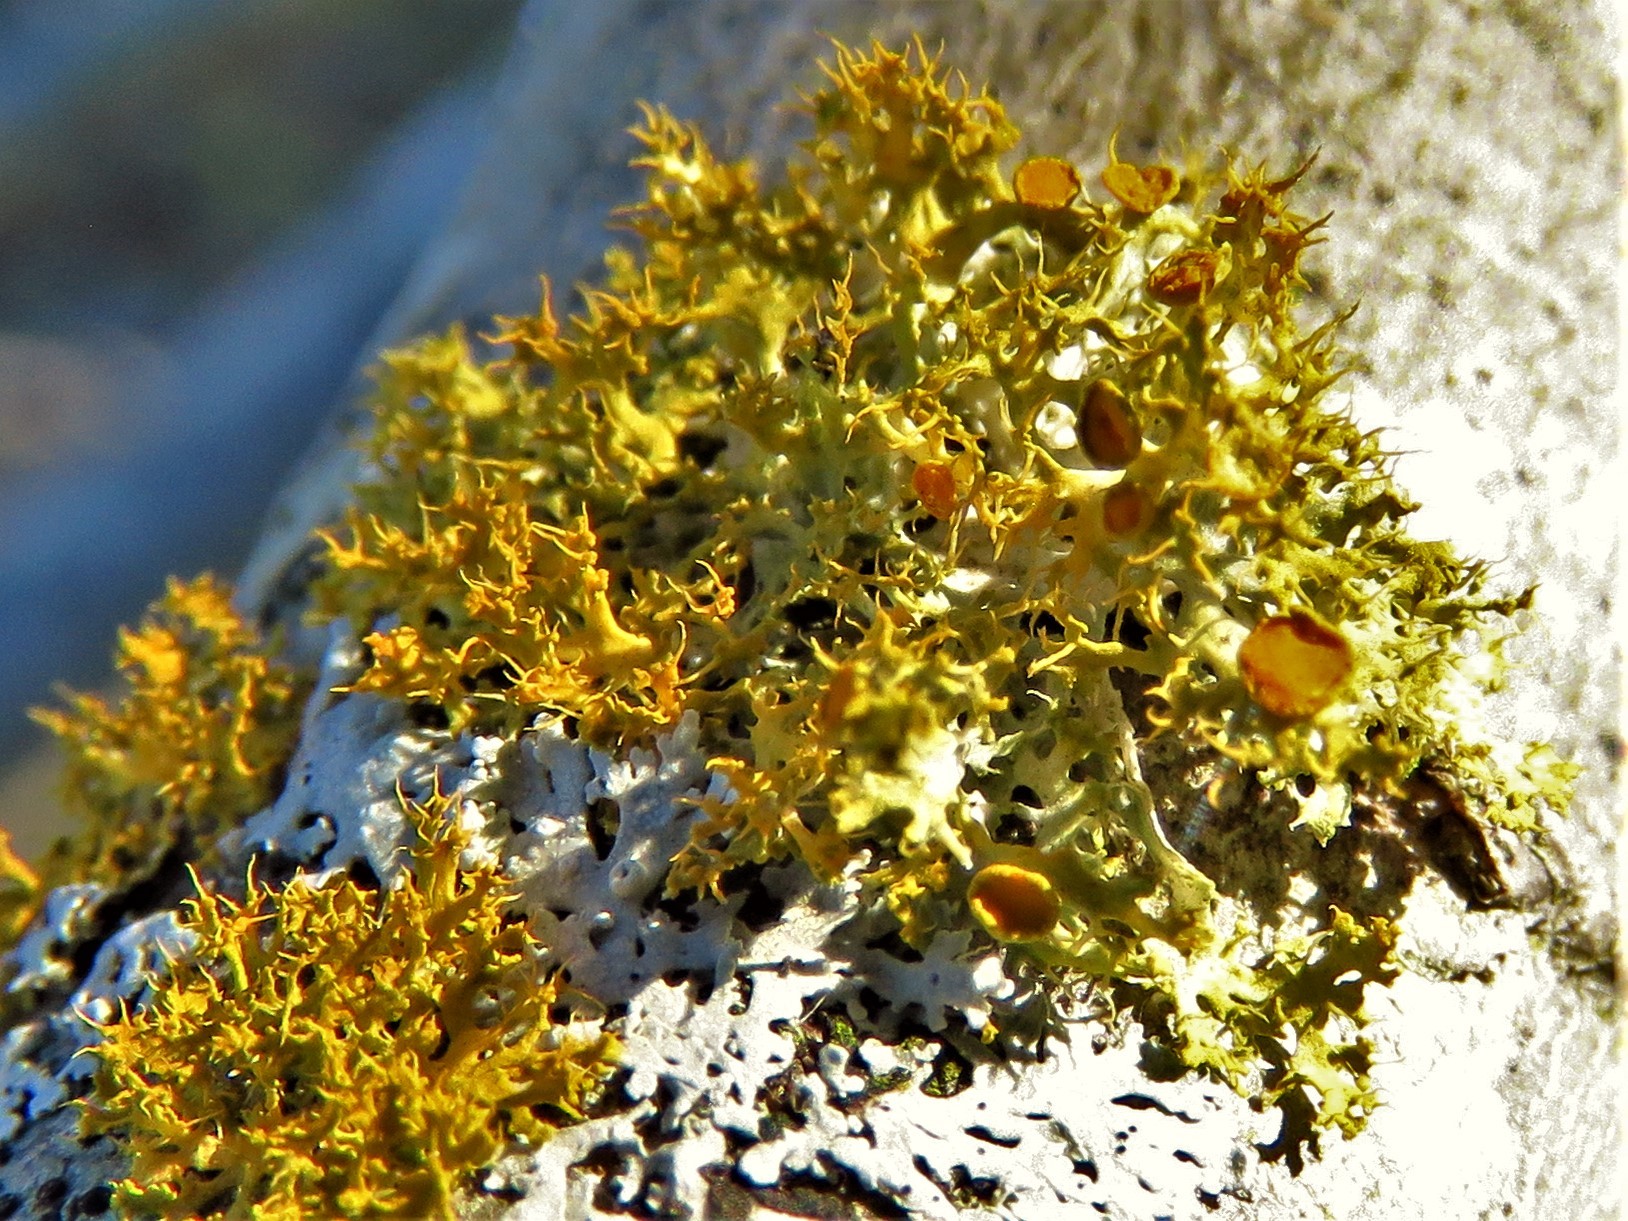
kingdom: Fungi
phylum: Ascomycota
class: Lecanoromycetes
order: Teloschistales
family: Teloschistaceae
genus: Niorma
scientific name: Niorma chrysophthalma
